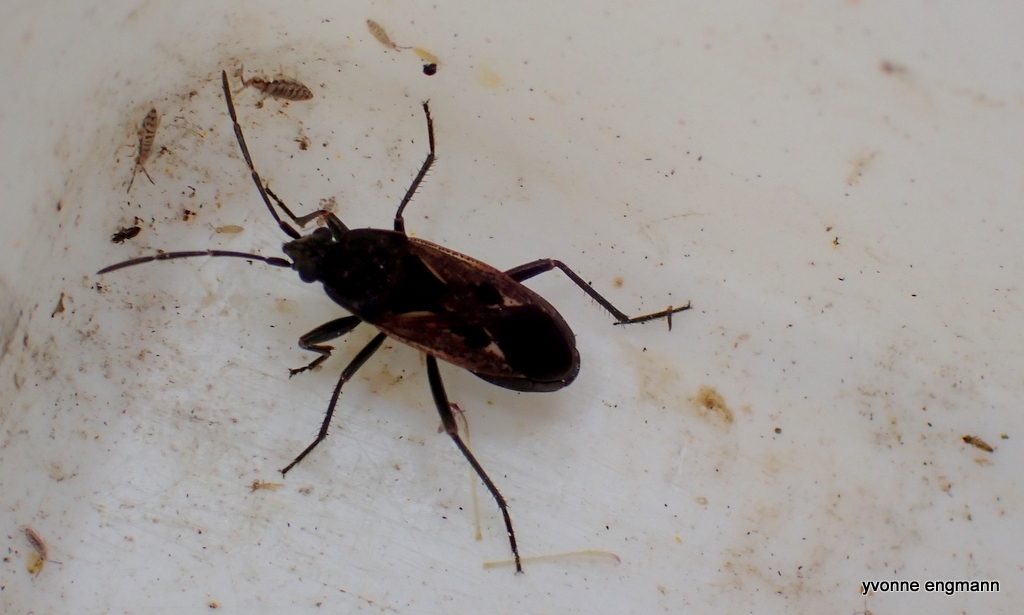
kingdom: Animalia
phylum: Arthropoda
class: Insecta
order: Hemiptera
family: Rhyparochromidae
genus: Rhyparochromus
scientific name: Rhyparochromus pini
